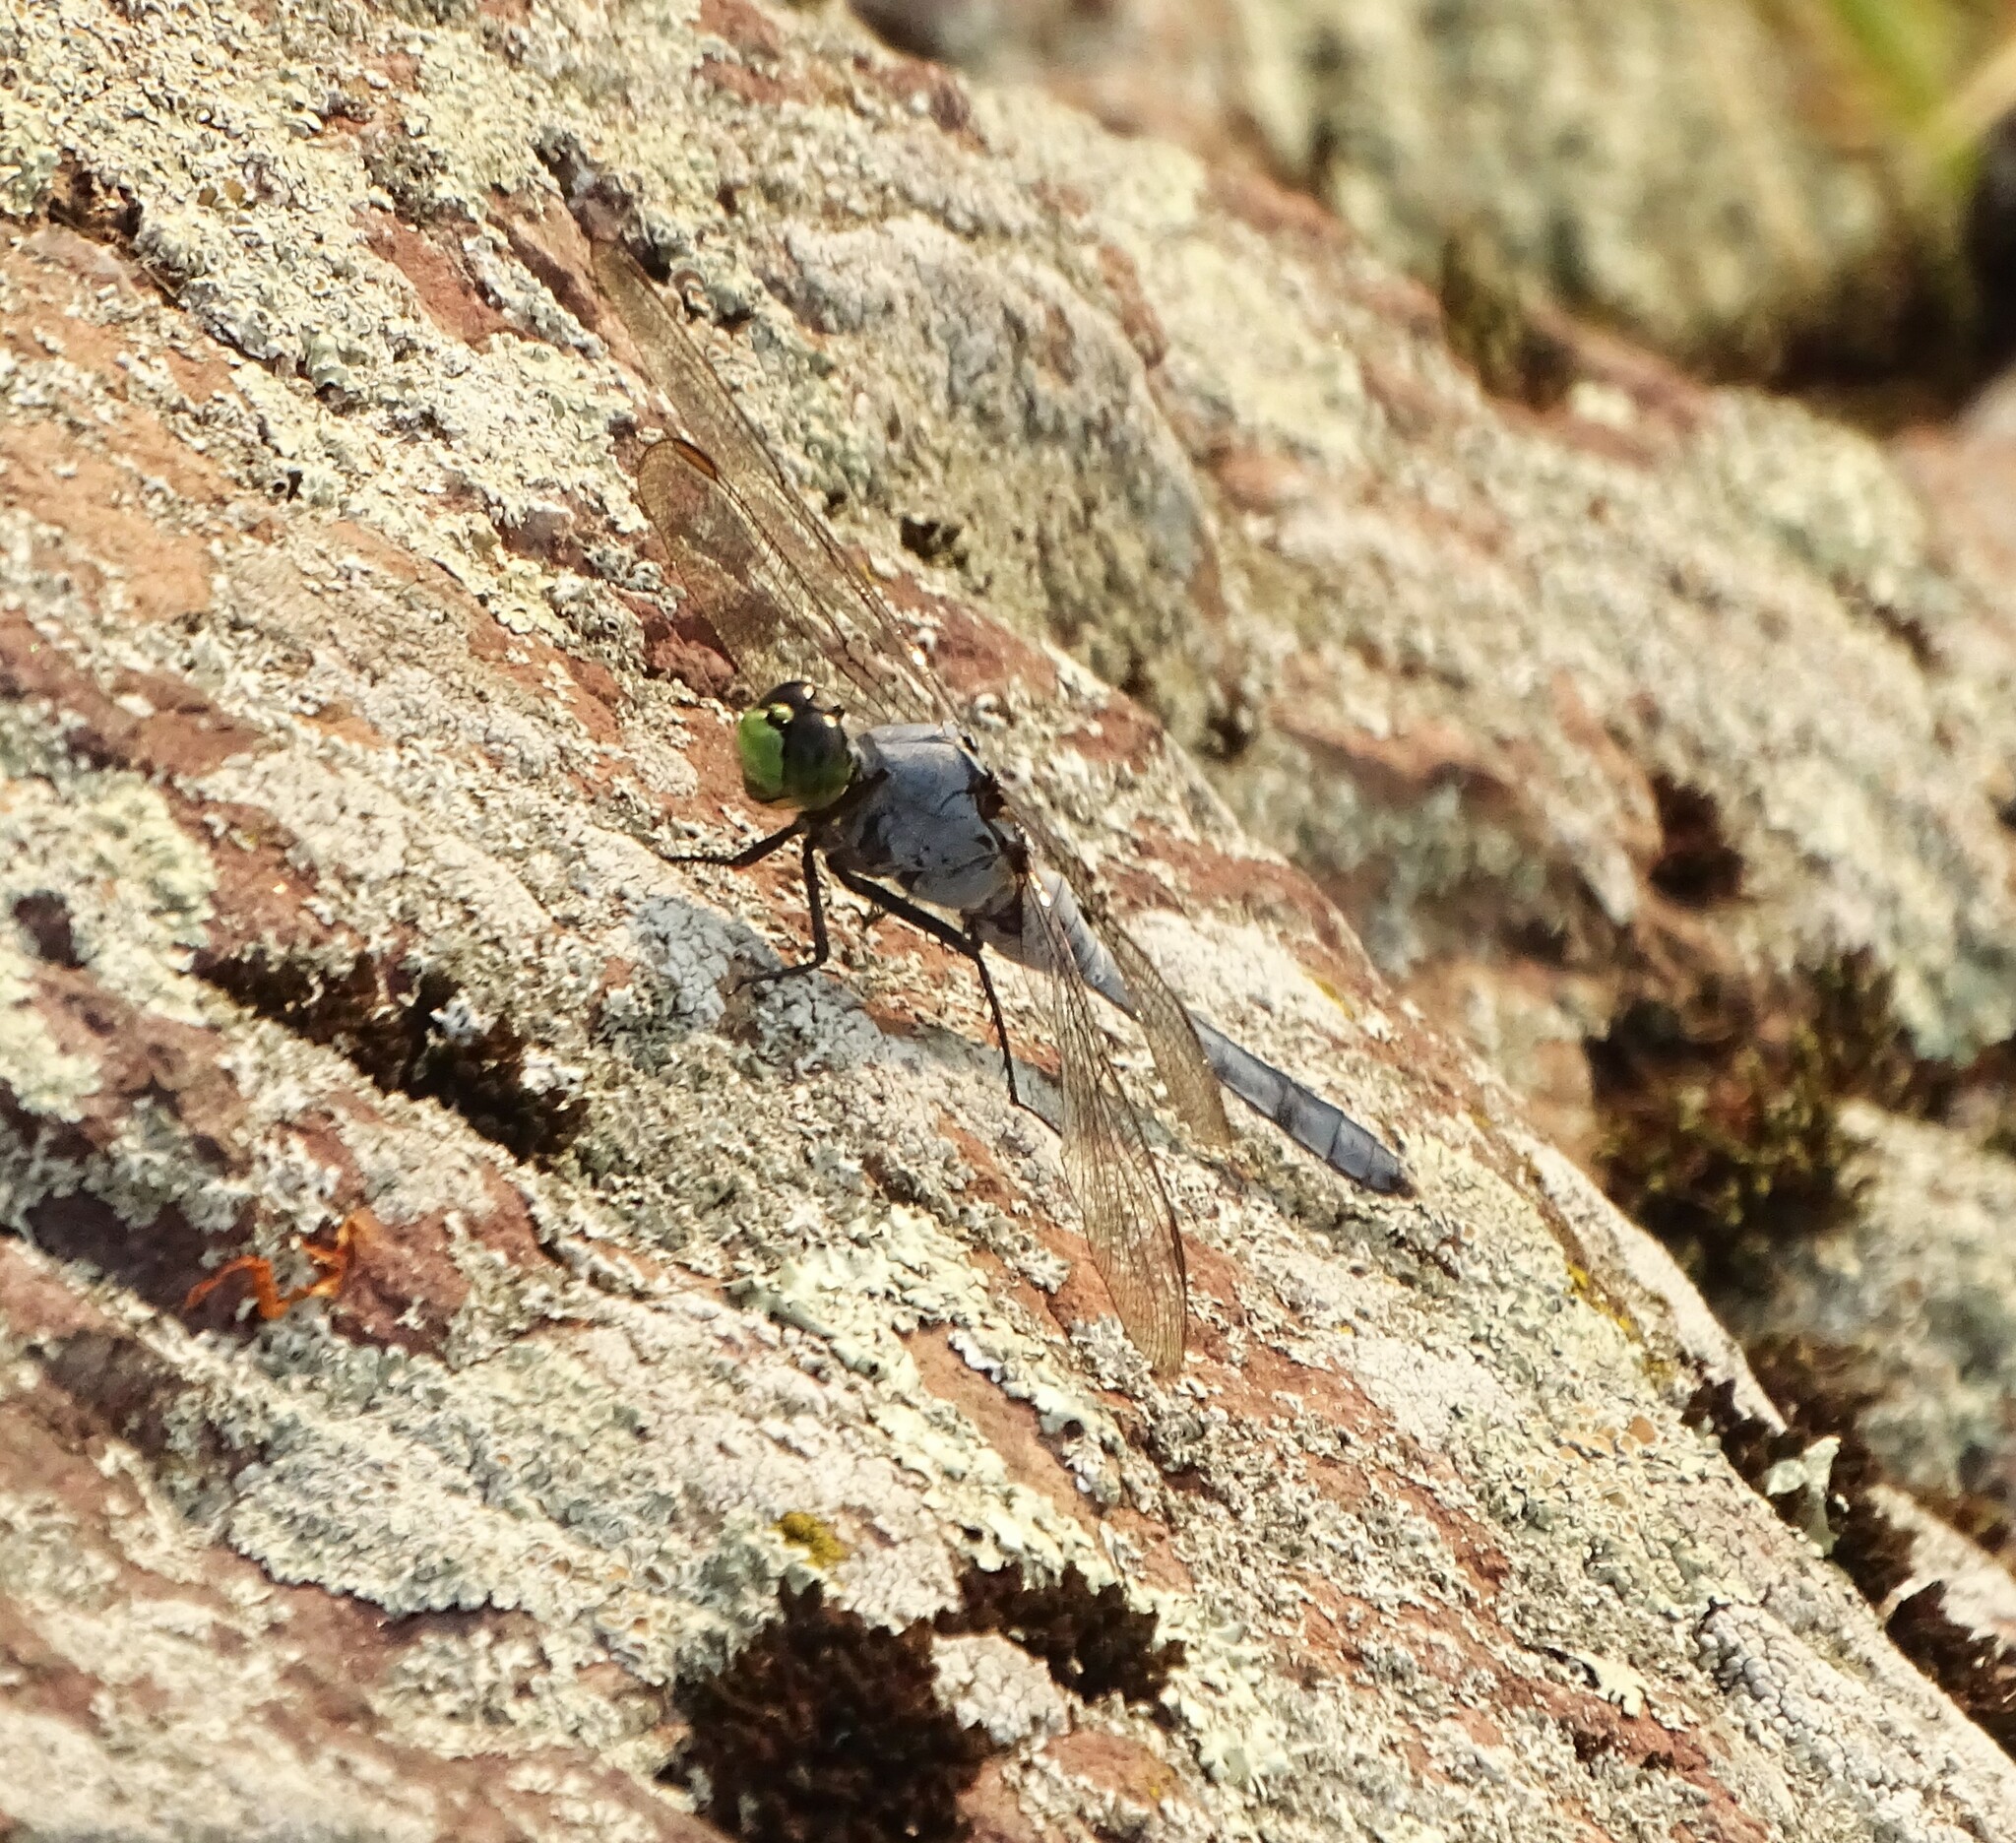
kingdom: Animalia
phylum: Arthropoda
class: Insecta
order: Odonata
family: Libellulidae
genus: Erythemis
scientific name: Erythemis simplicicollis
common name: Eastern pondhawk
